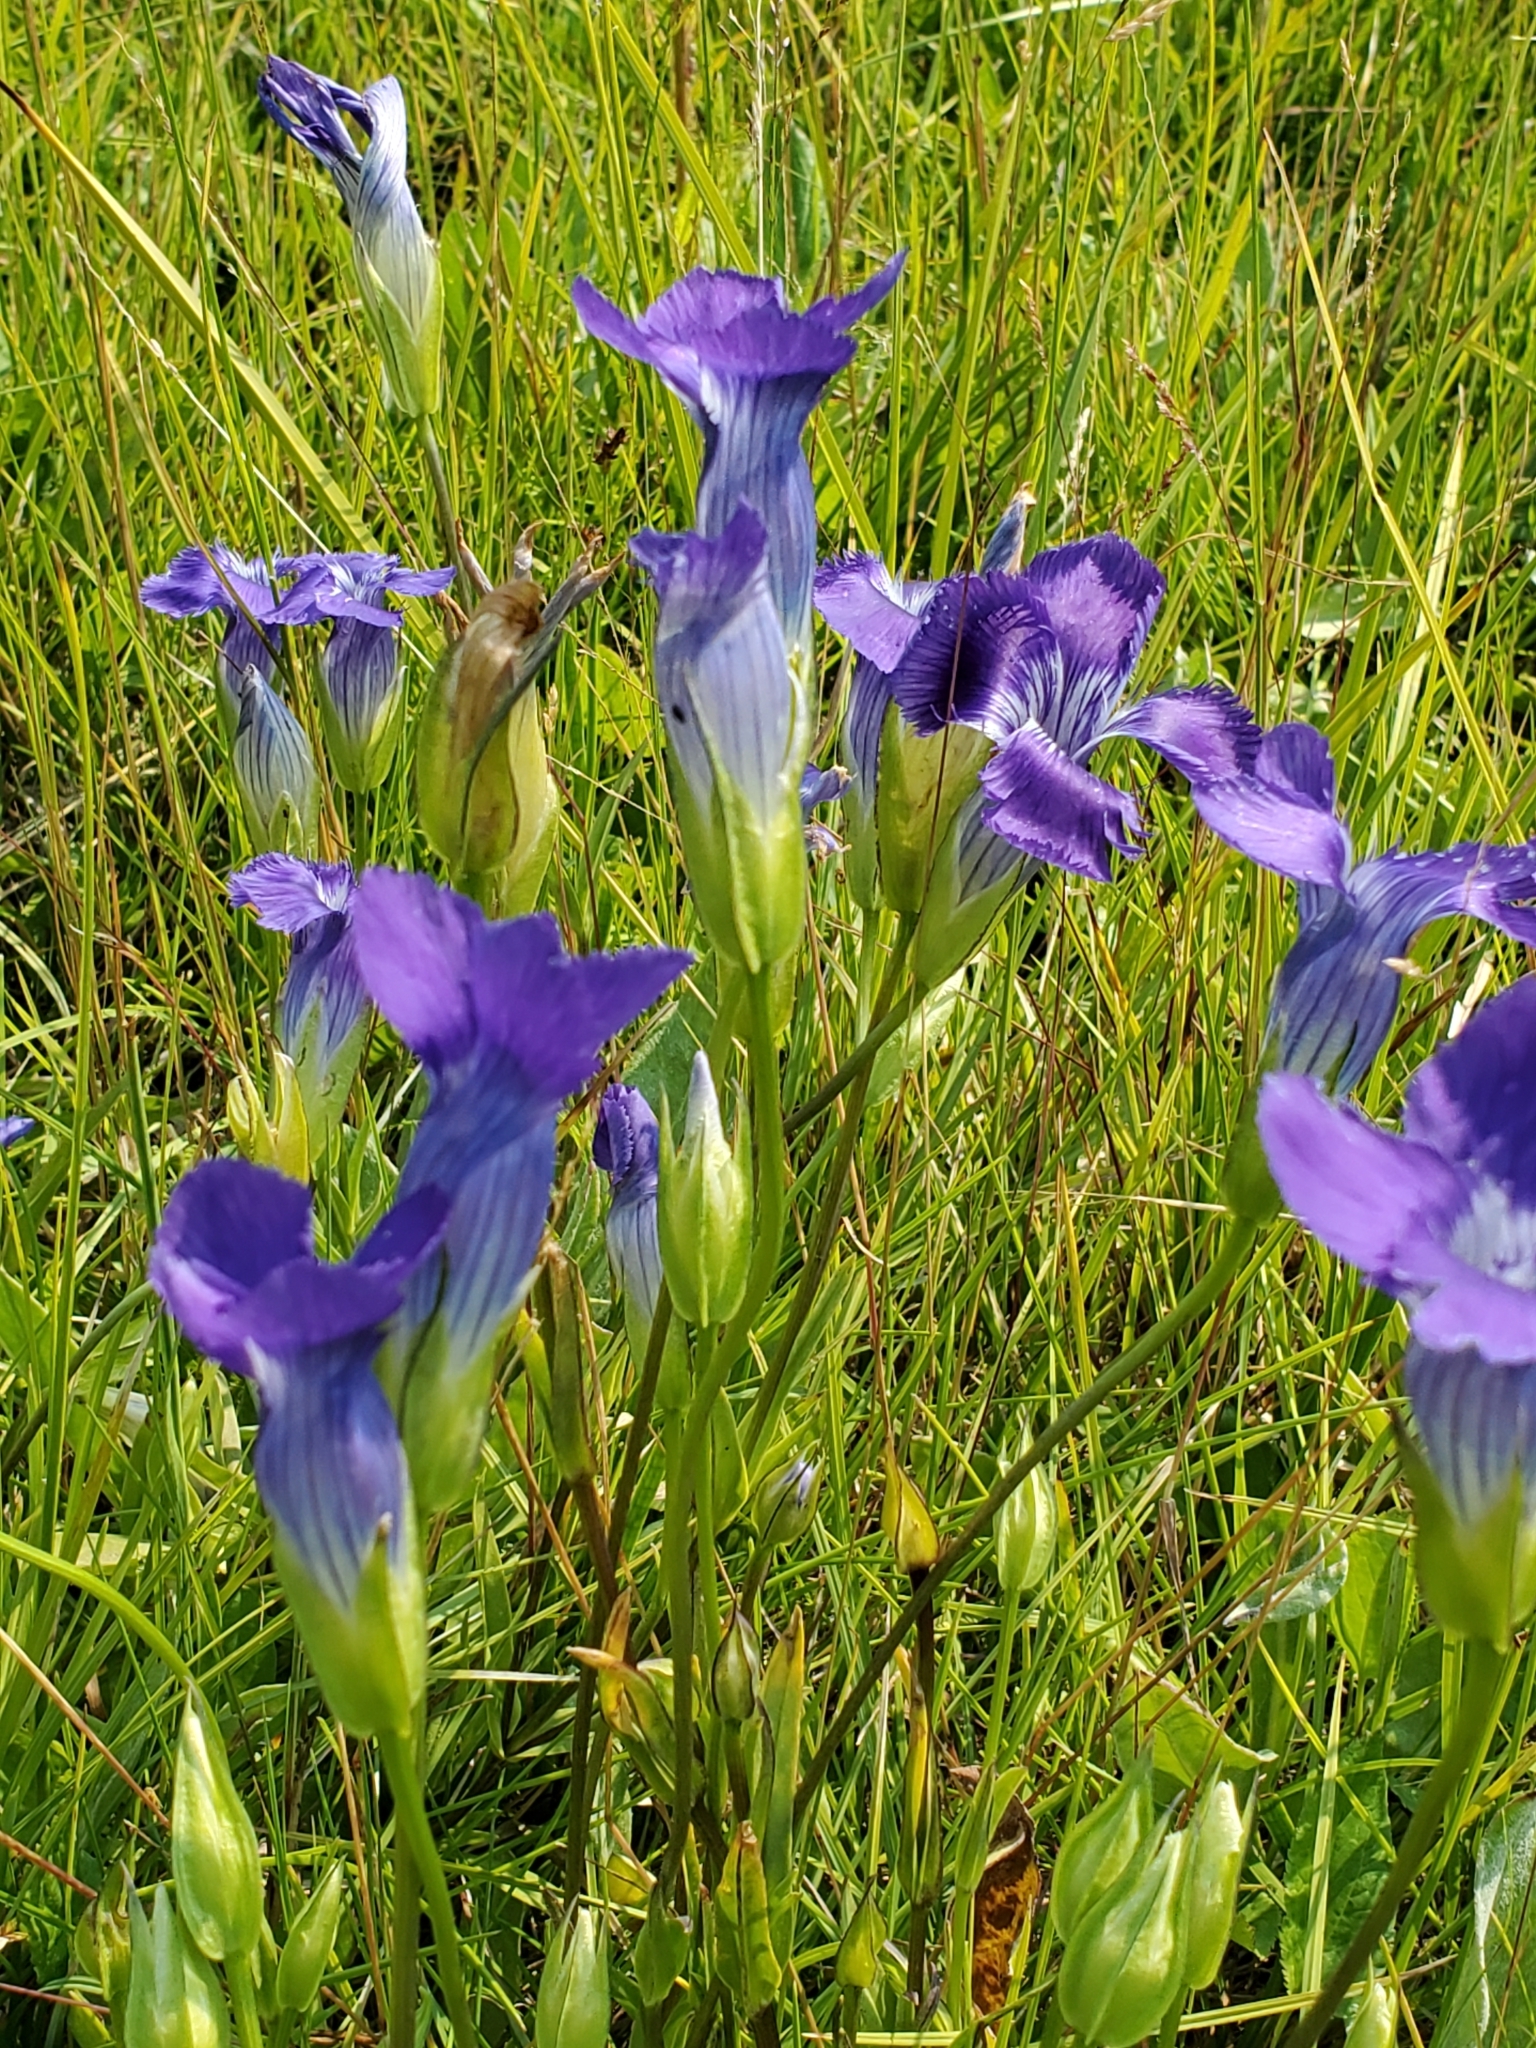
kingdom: Plantae
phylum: Tracheophyta
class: Magnoliopsida
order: Gentianales
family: Gentianaceae
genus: Gentianopsis
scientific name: Gentianopsis thermalis
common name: Rocky mountain fringed-gentian
